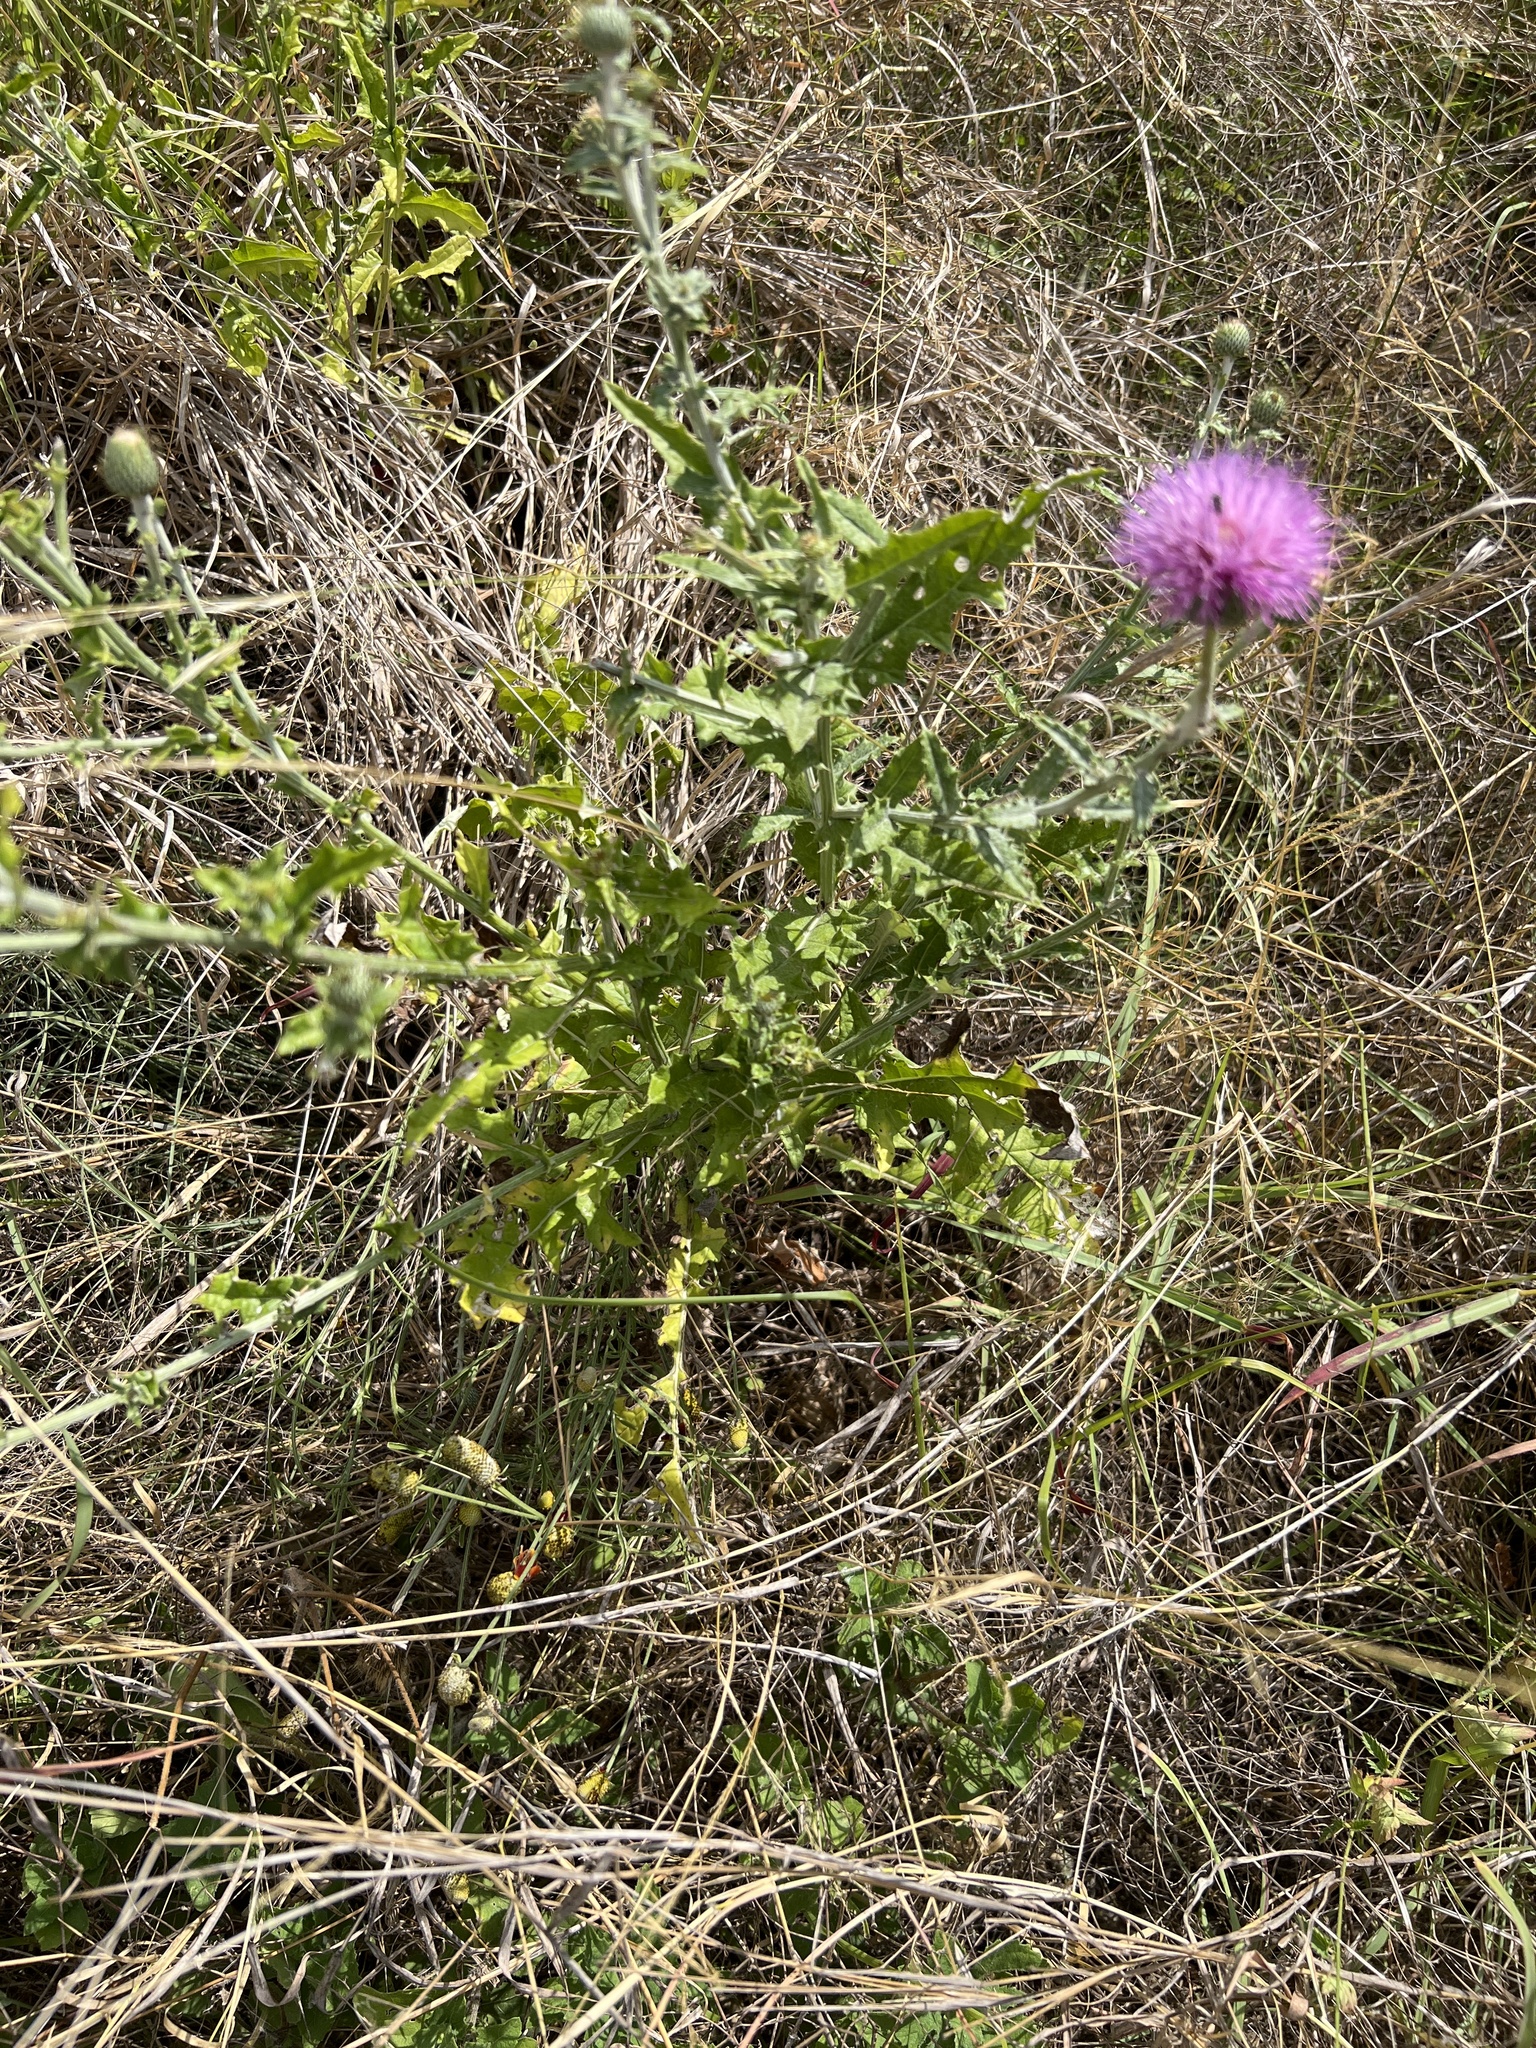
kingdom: Plantae
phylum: Tracheophyta
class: Magnoliopsida
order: Asterales
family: Asteraceae
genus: Cirsium
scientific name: Cirsium texanum
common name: Texas purple thistle
